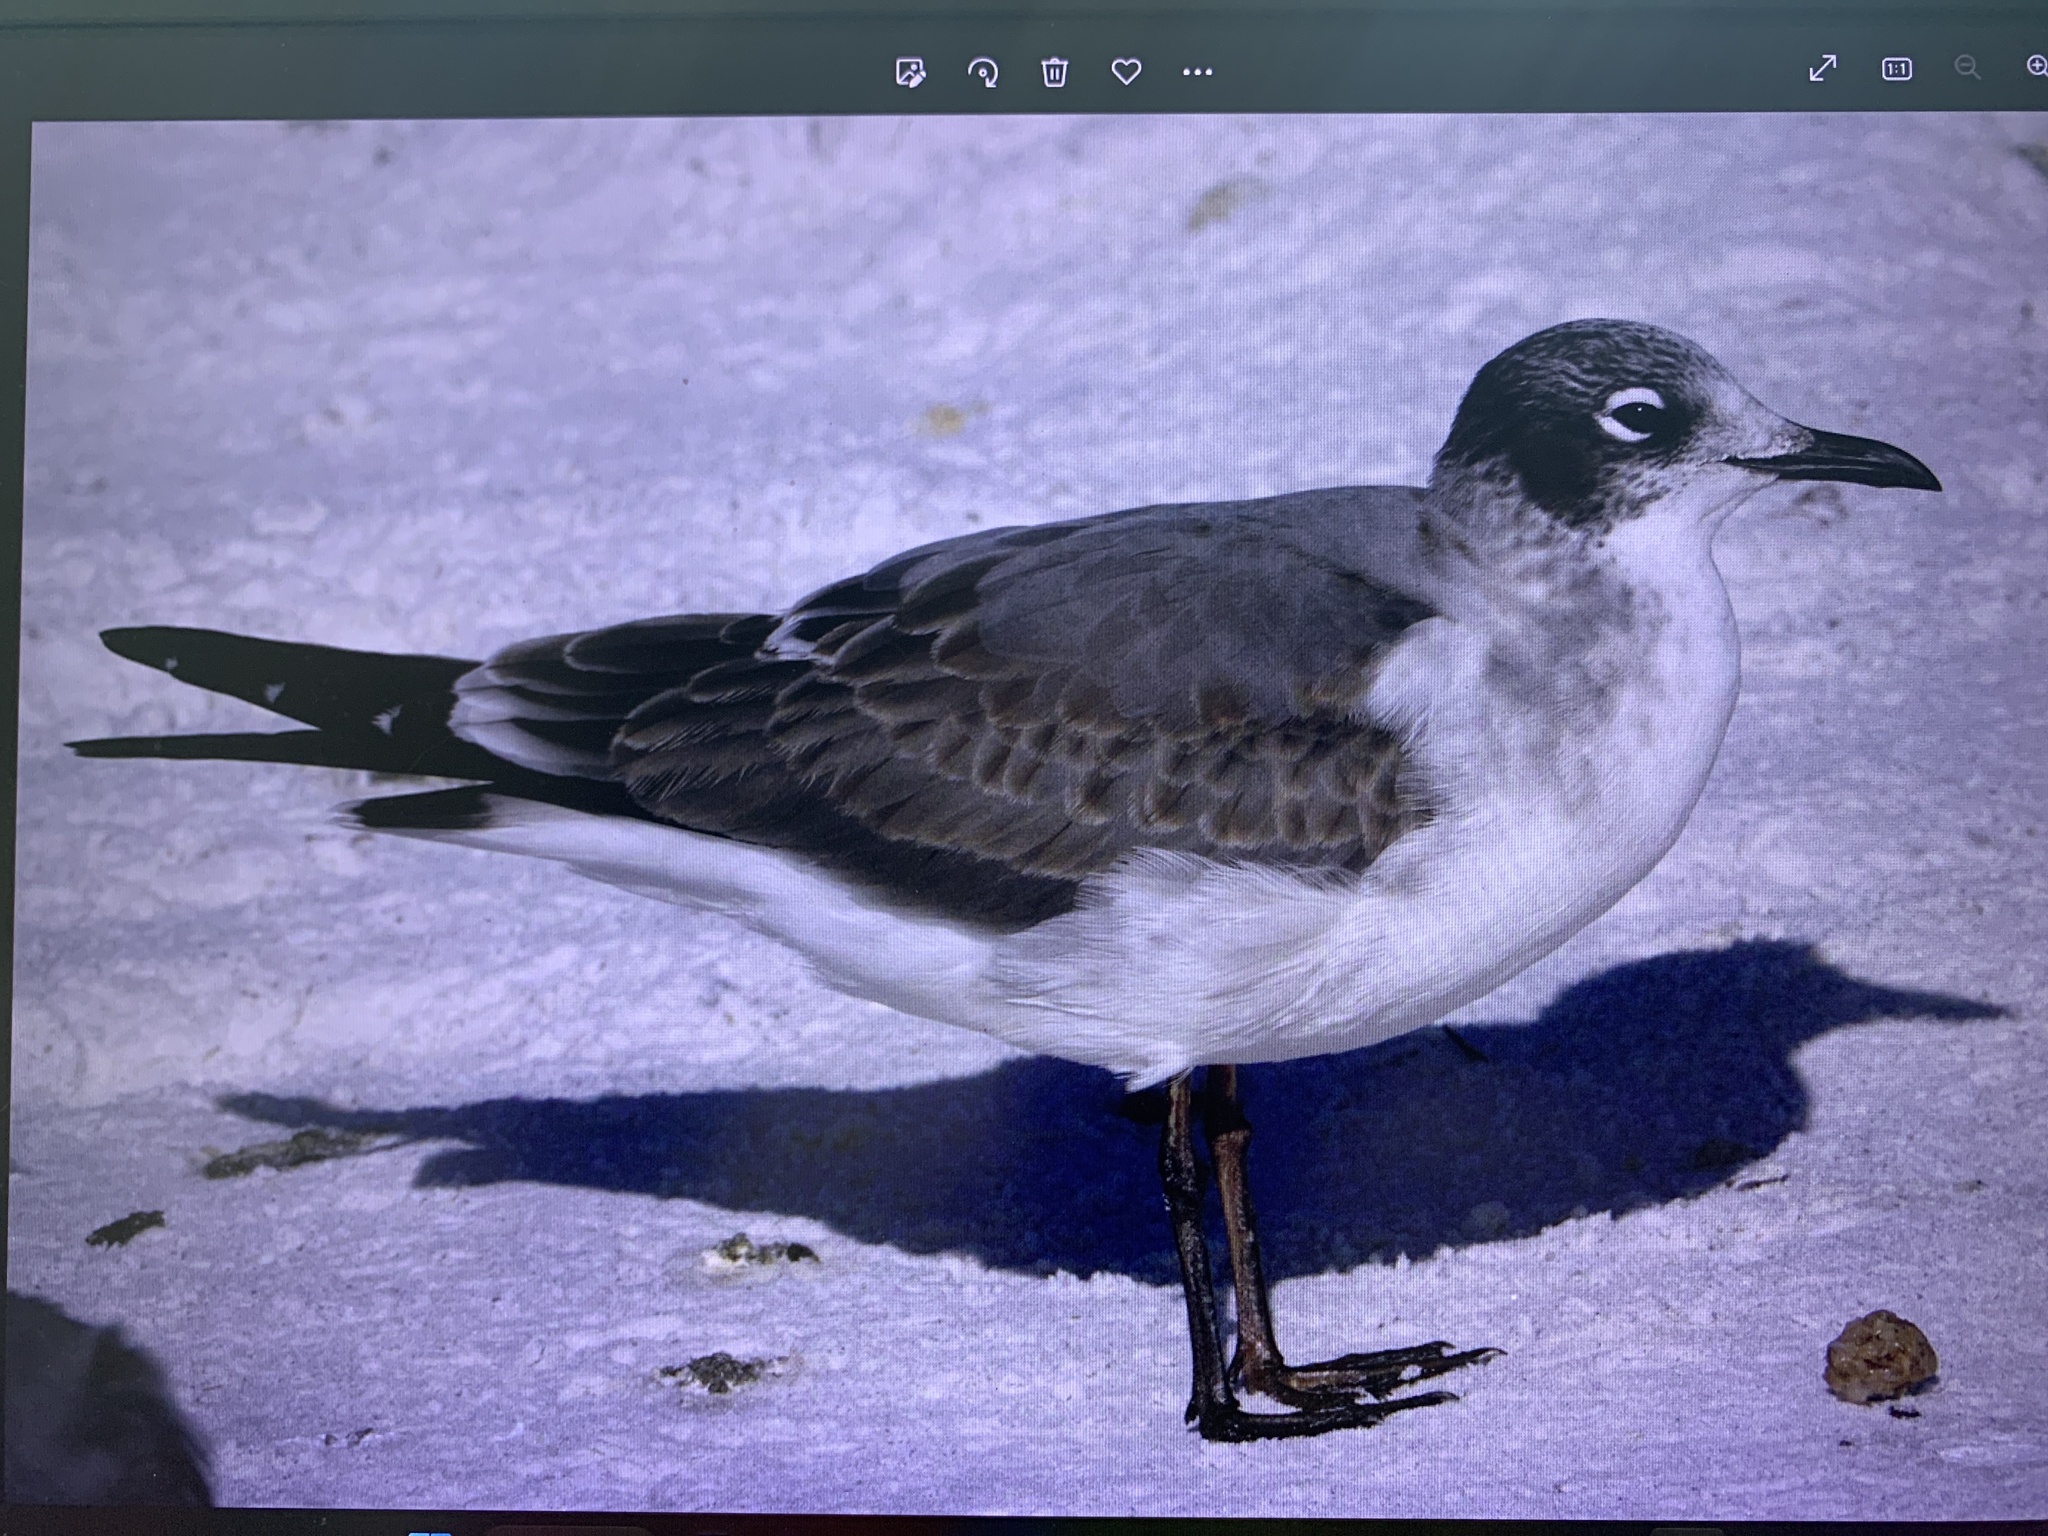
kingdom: Animalia
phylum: Chordata
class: Aves
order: Charadriiformes
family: Laridae
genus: Leucophaeus
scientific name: Leucophaeus pipixcan
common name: Franklin's gull
